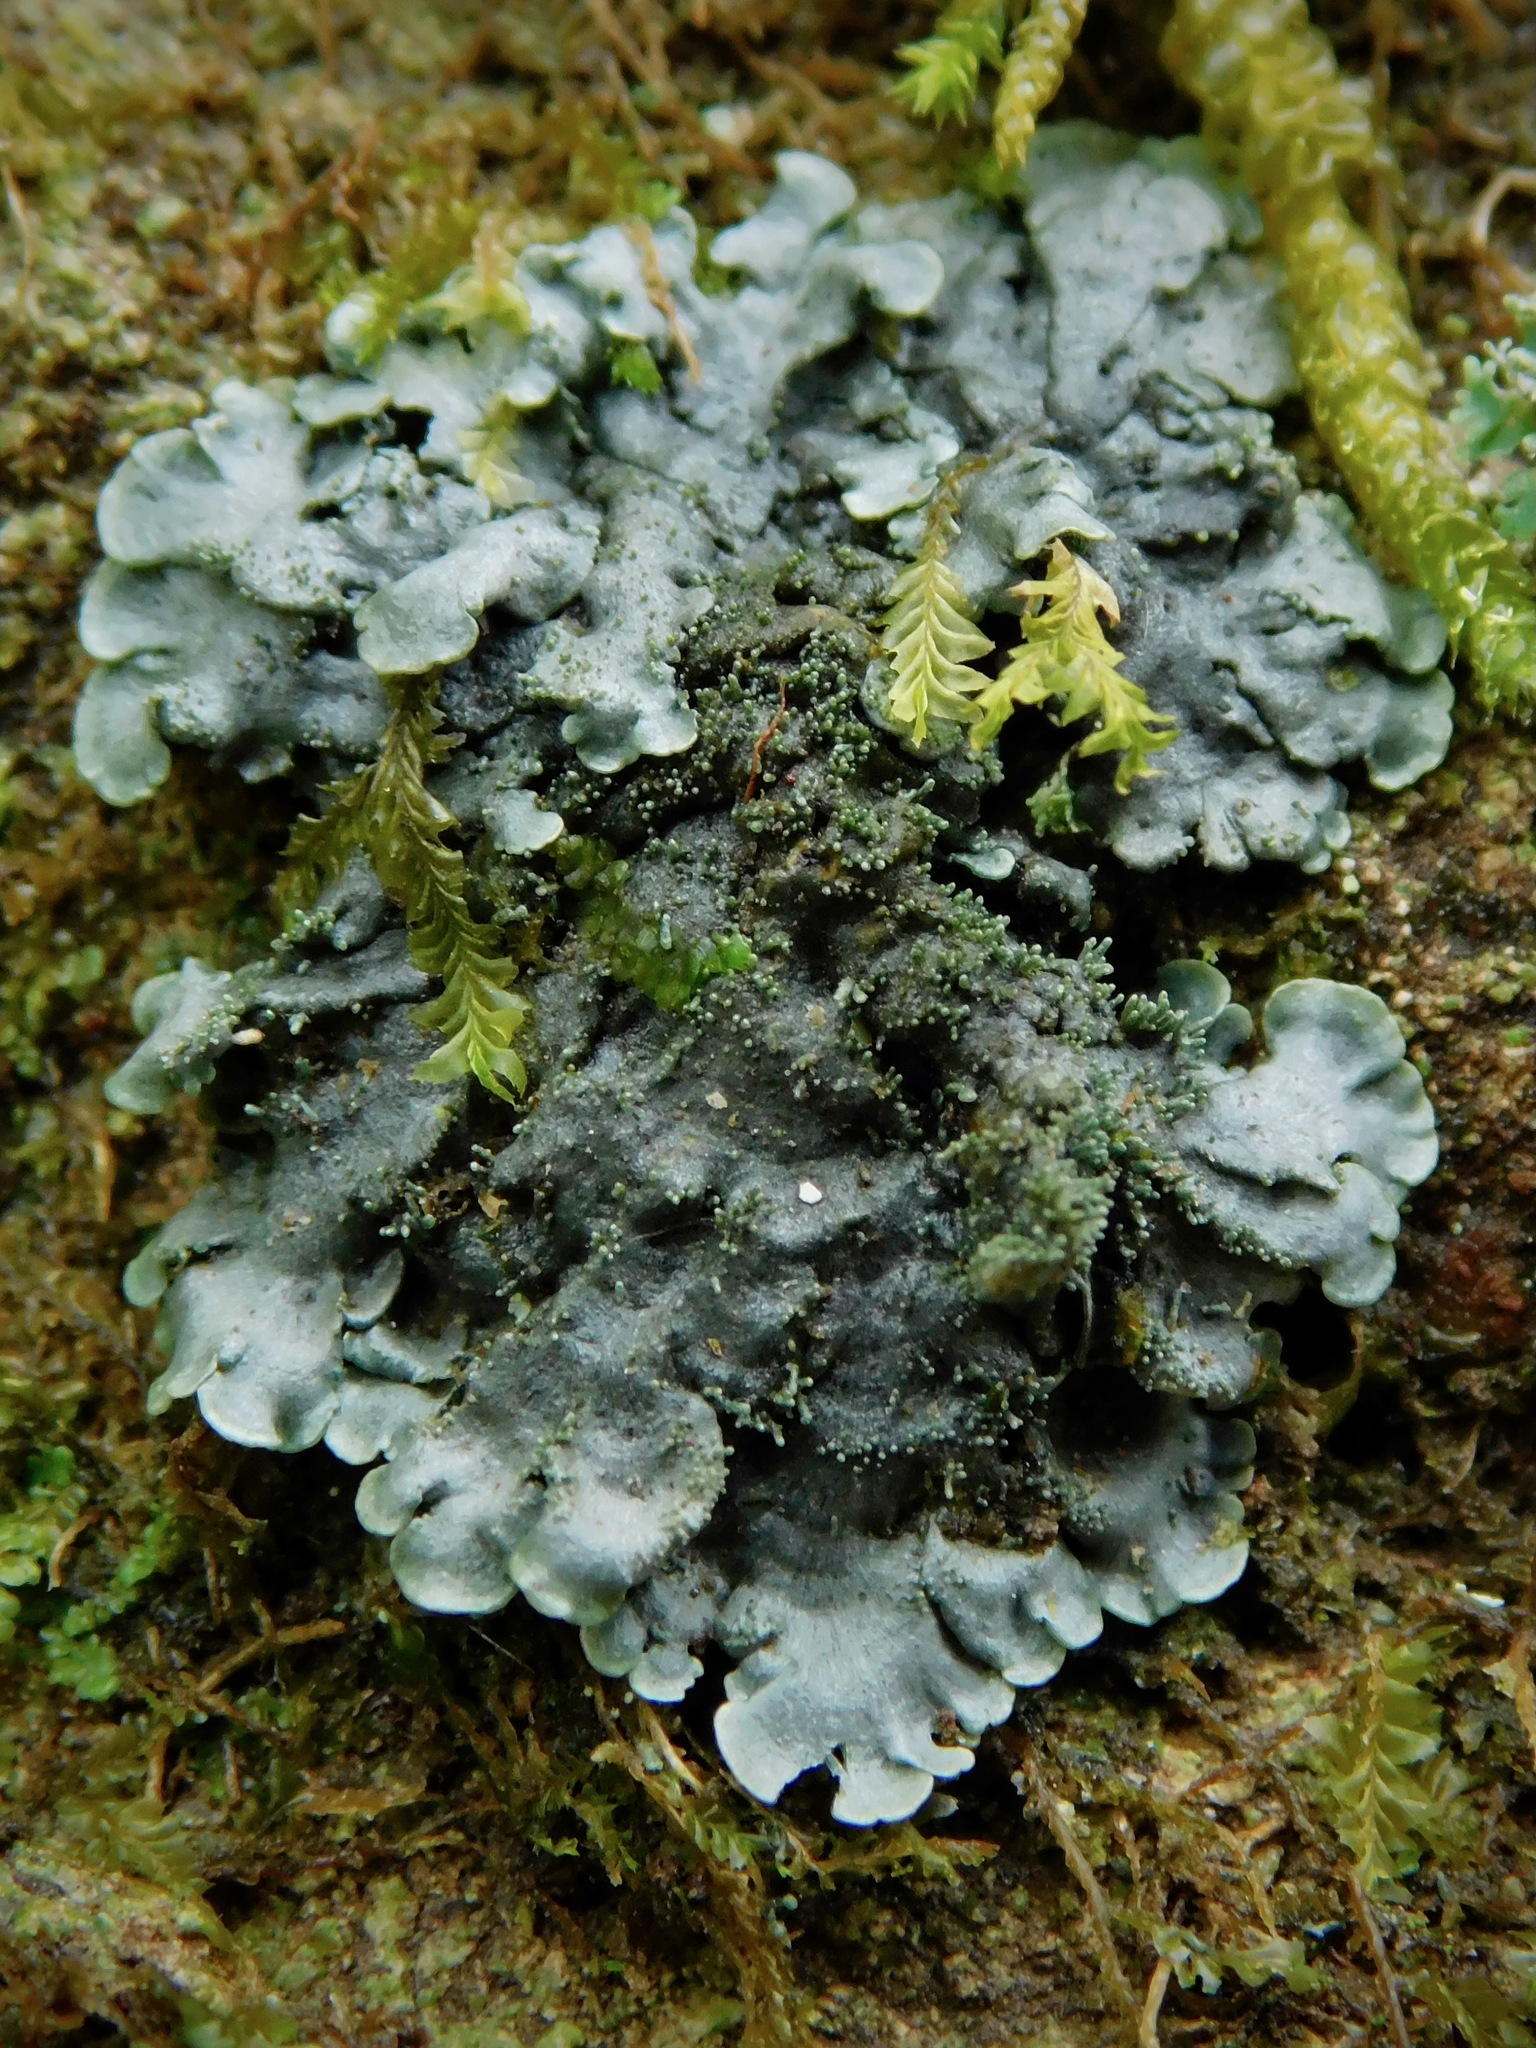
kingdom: Fungi
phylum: Ascomycota
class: Lecanoromycetes
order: Peltigerales
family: Coccocarpiaceae
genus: Coccocarpia
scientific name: Coccocarpia palmicola
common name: Salted shell lichen
